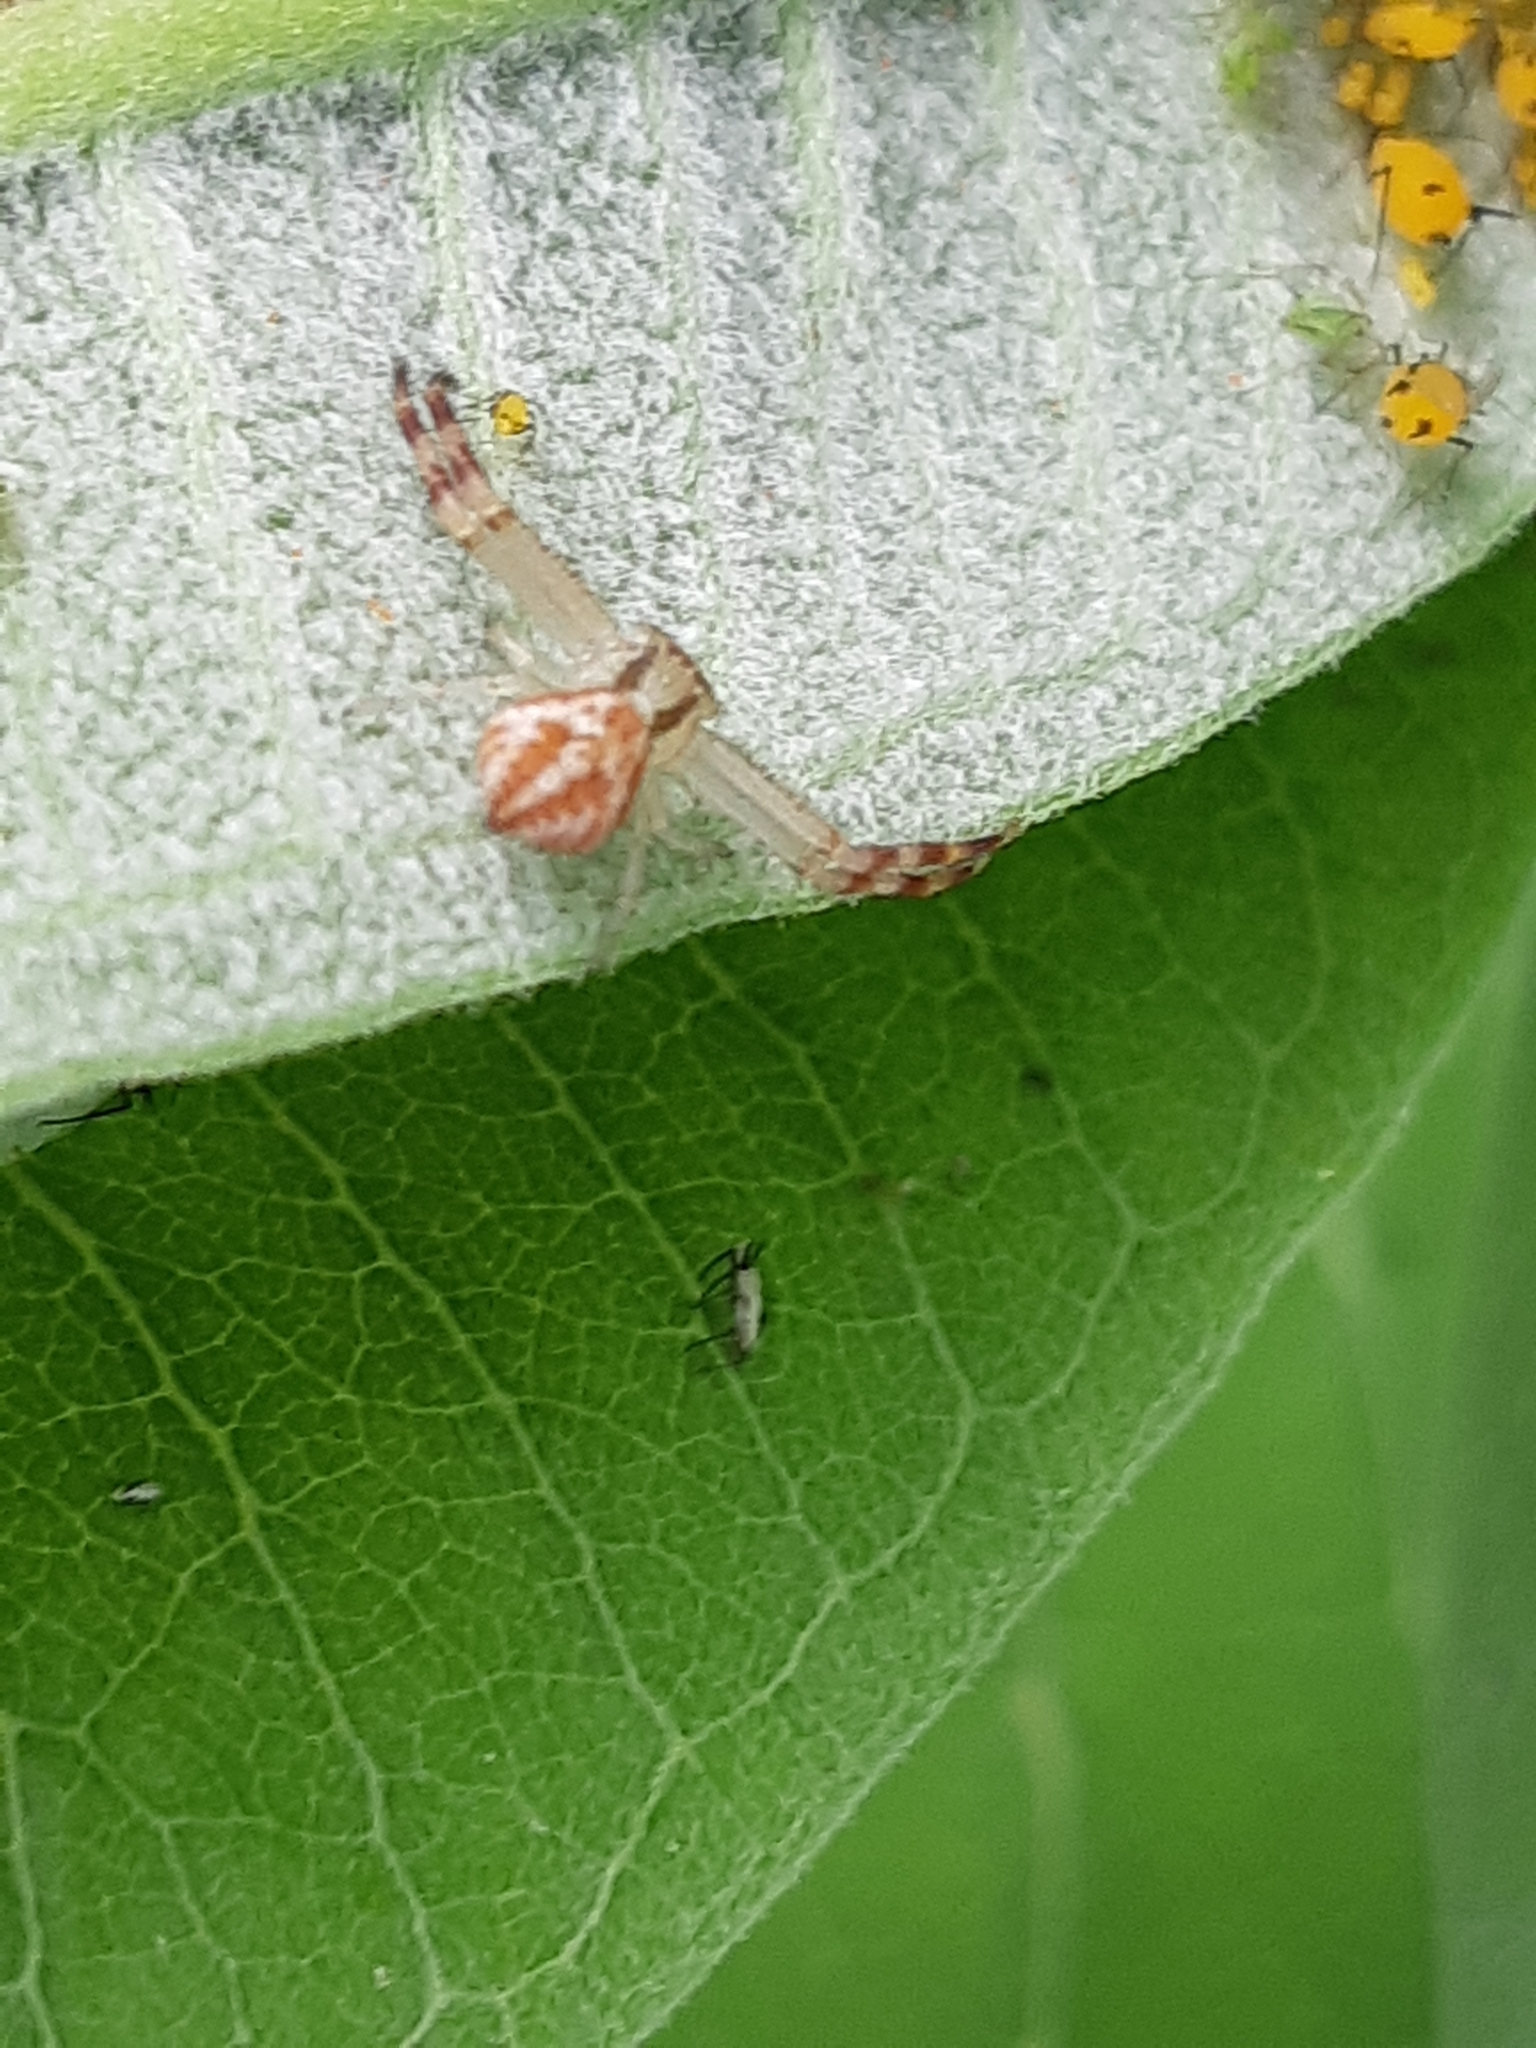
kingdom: Animalia
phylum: Arthropoda
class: Arachnida
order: Araneae
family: Thomisidae
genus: Mecaphesa
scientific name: Mecaphesa asperata
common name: Crab spiders
